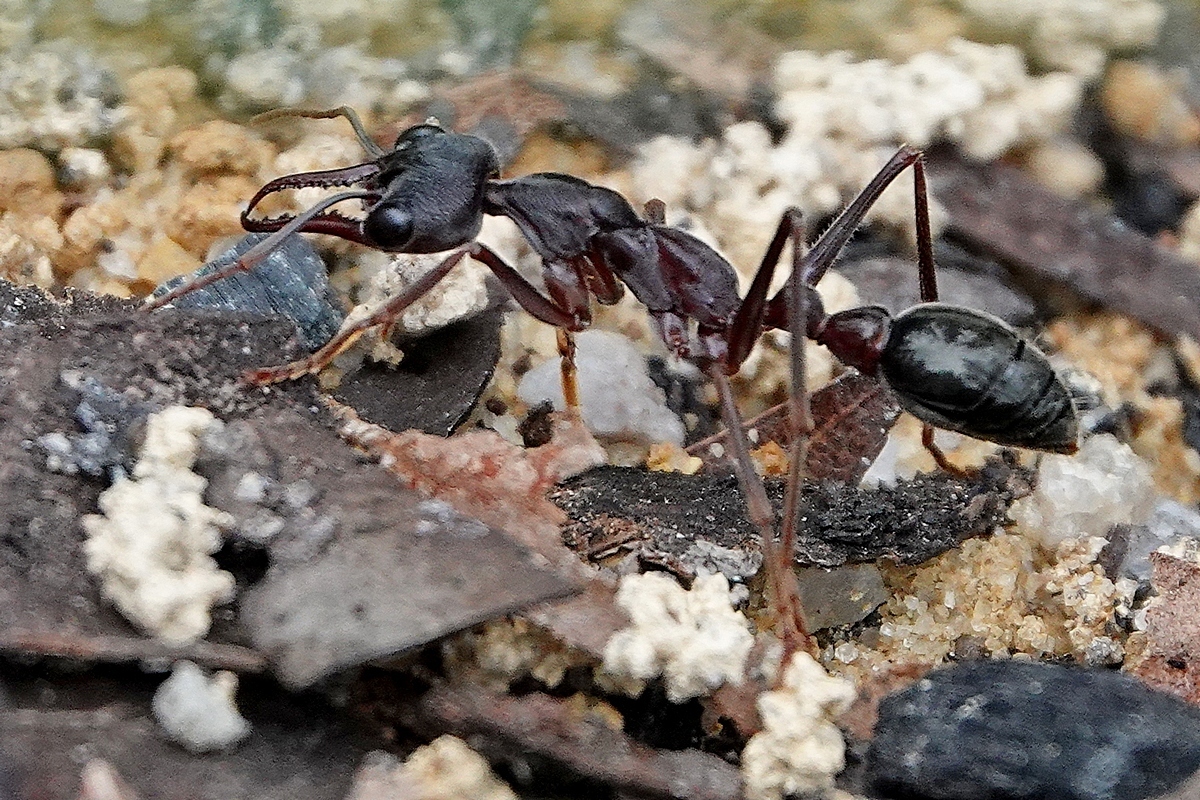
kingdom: Animalia
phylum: Arthropoda
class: Insecta
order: Hymenoptera
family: Formicidae
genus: Myrmecia
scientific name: Myrmecia pyriformis
